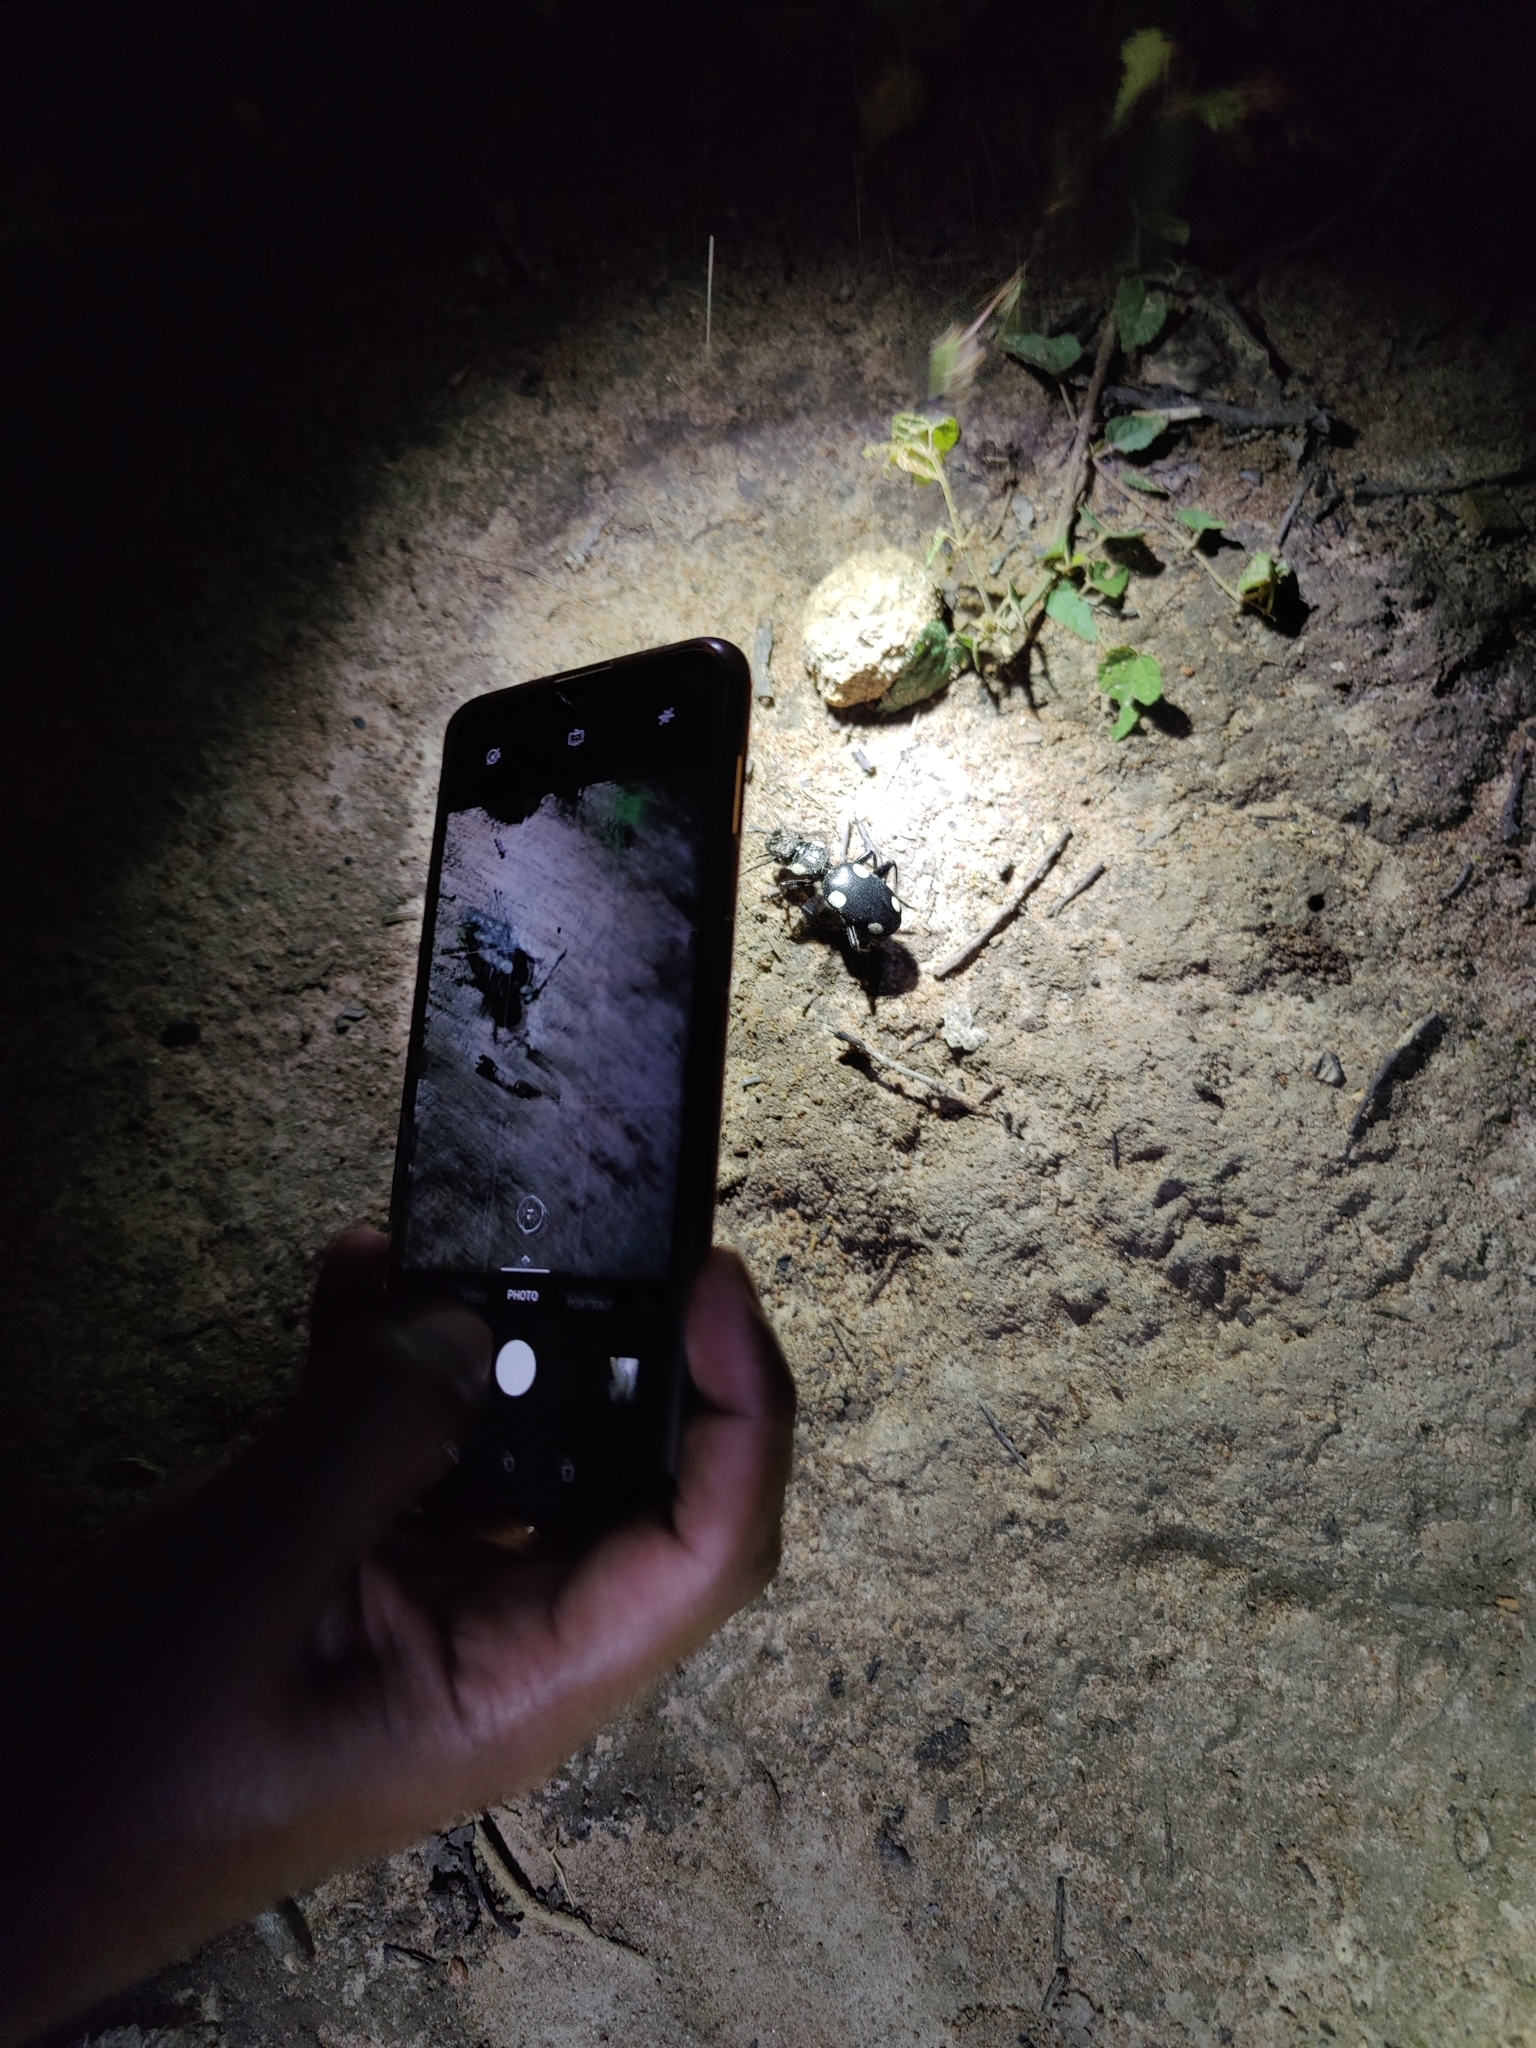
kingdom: Animalia
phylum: Arthropoda
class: Insecta
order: Coleoptera
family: Carabidae
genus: Anthia
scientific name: Anthia sexguttata
